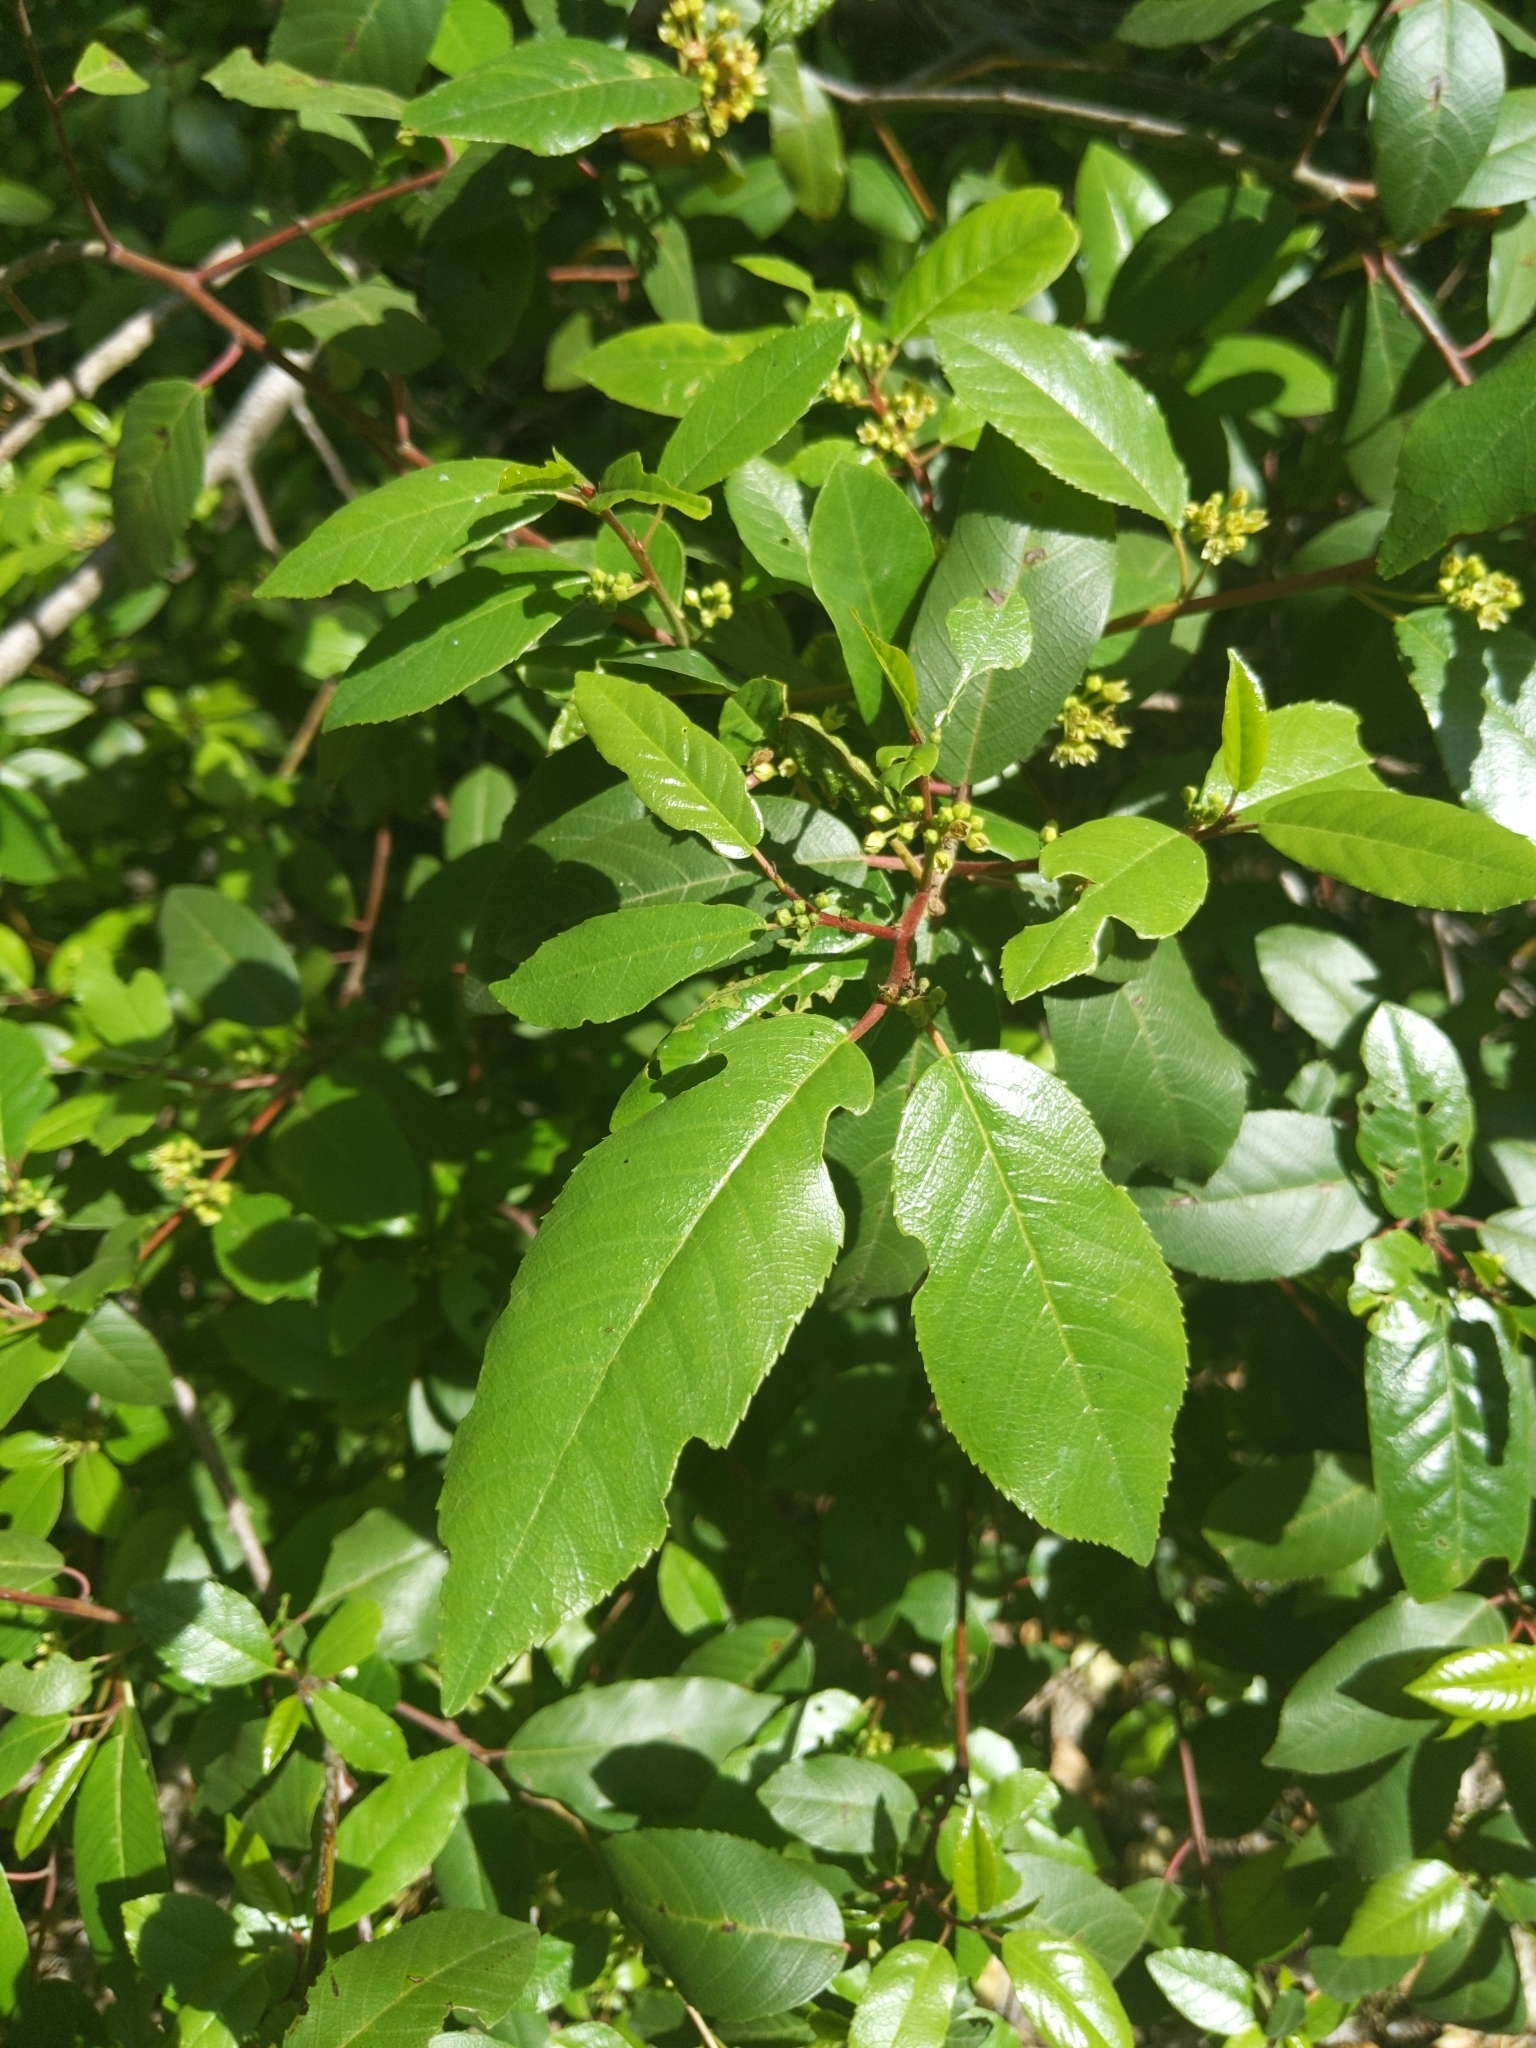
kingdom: Plantae
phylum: Tracheophyta
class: Magnoliopsida
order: Rosales
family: Rhamnaceae
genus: Frangula
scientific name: Frangula californica
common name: California buckthorn
